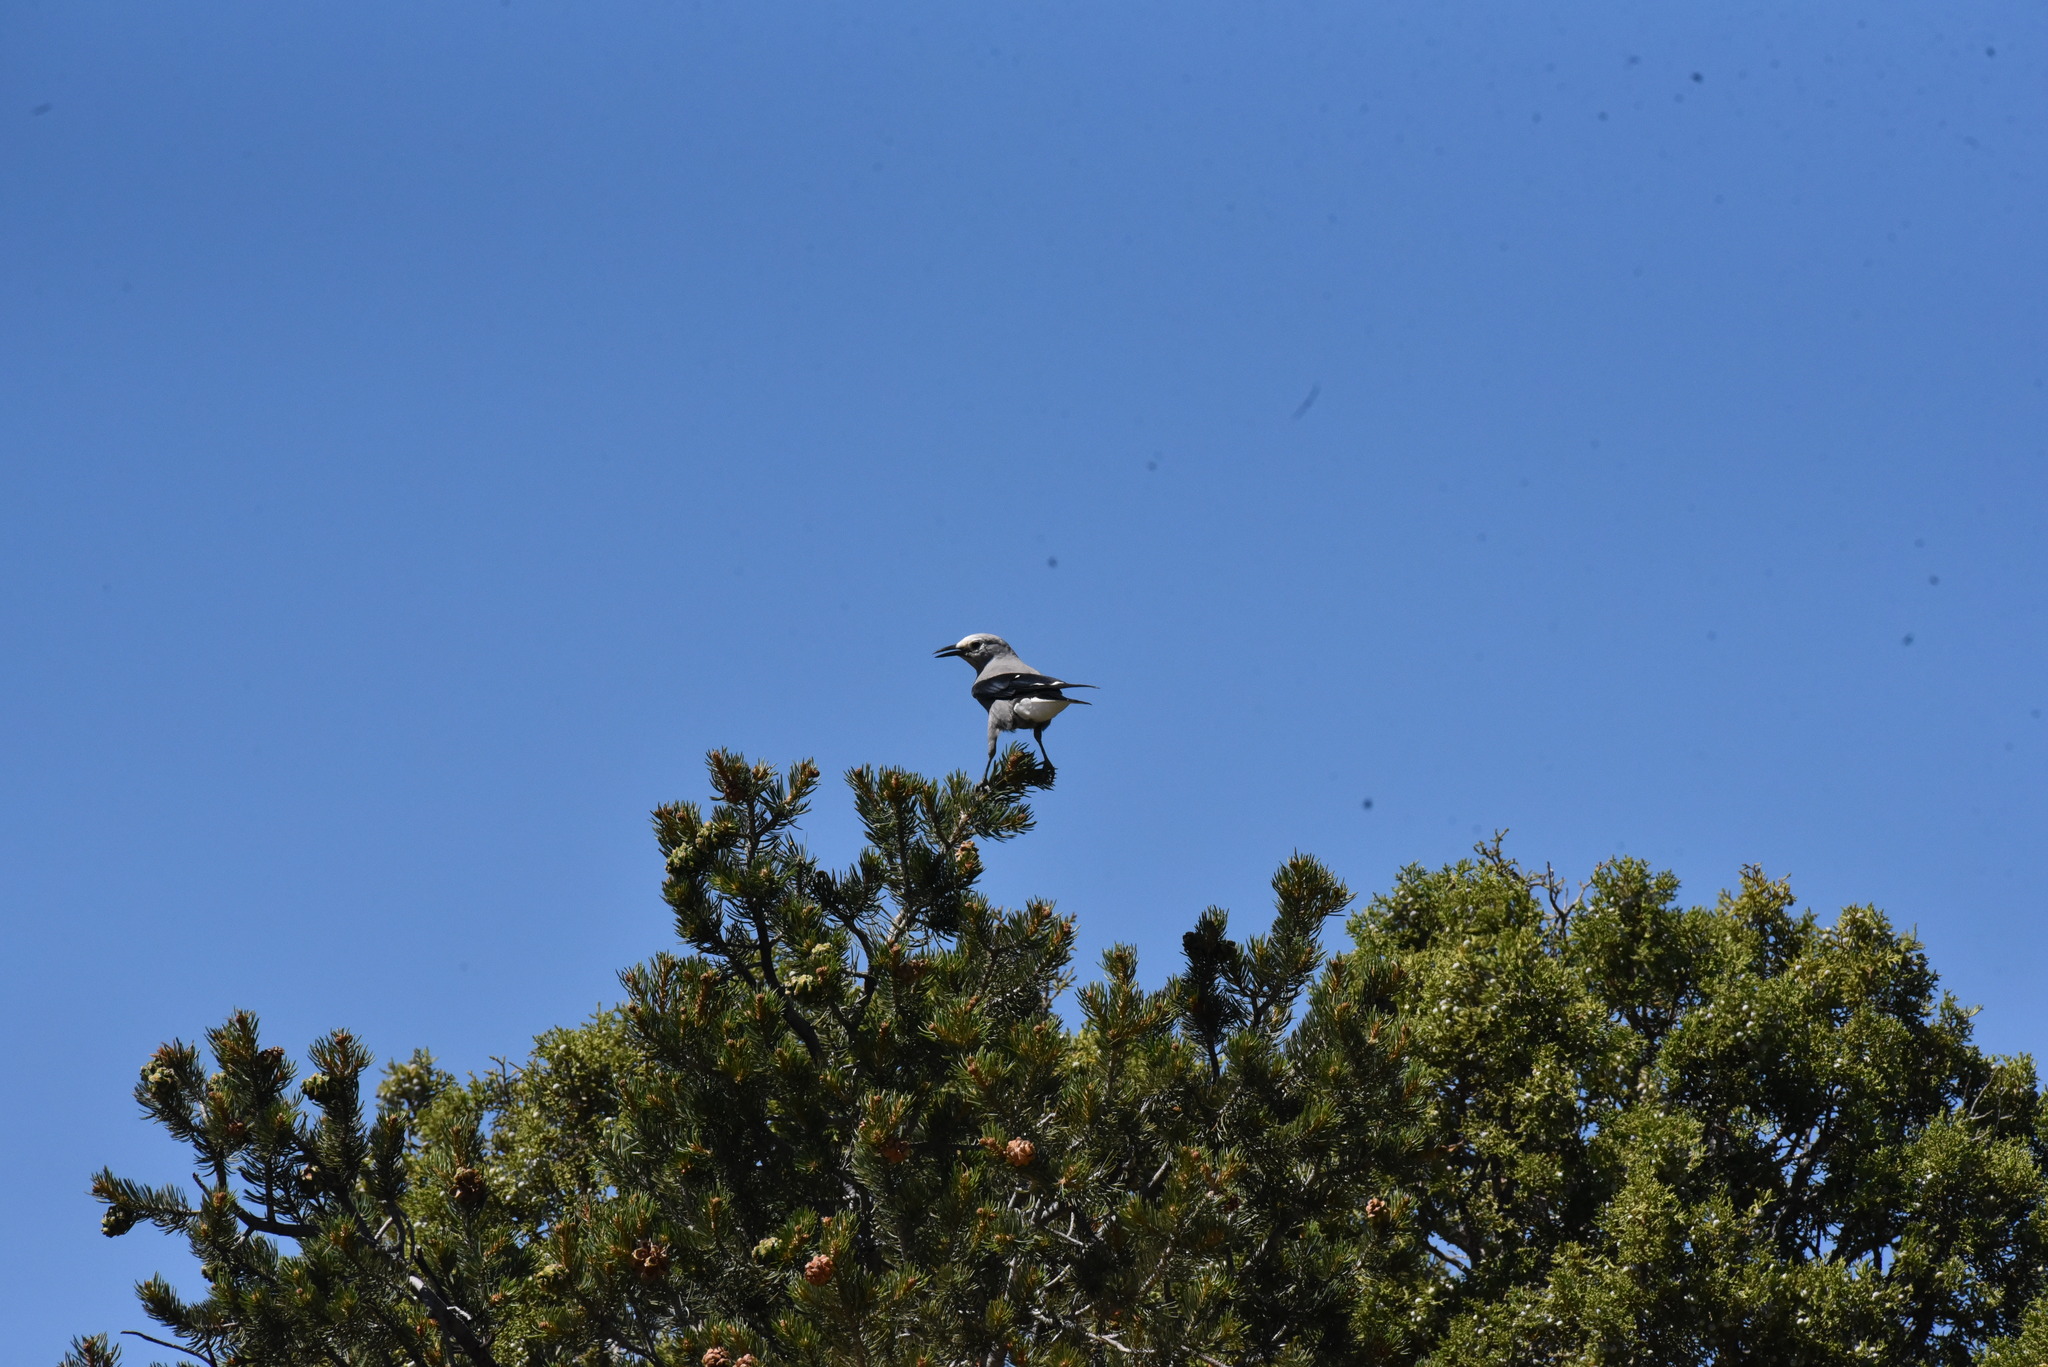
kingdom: Animalia
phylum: Chordata
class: Aves
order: Passeriformes
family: Corvidae
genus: Nucifraga
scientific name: Nucifraga columbiana
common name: Clark's nutcracker
